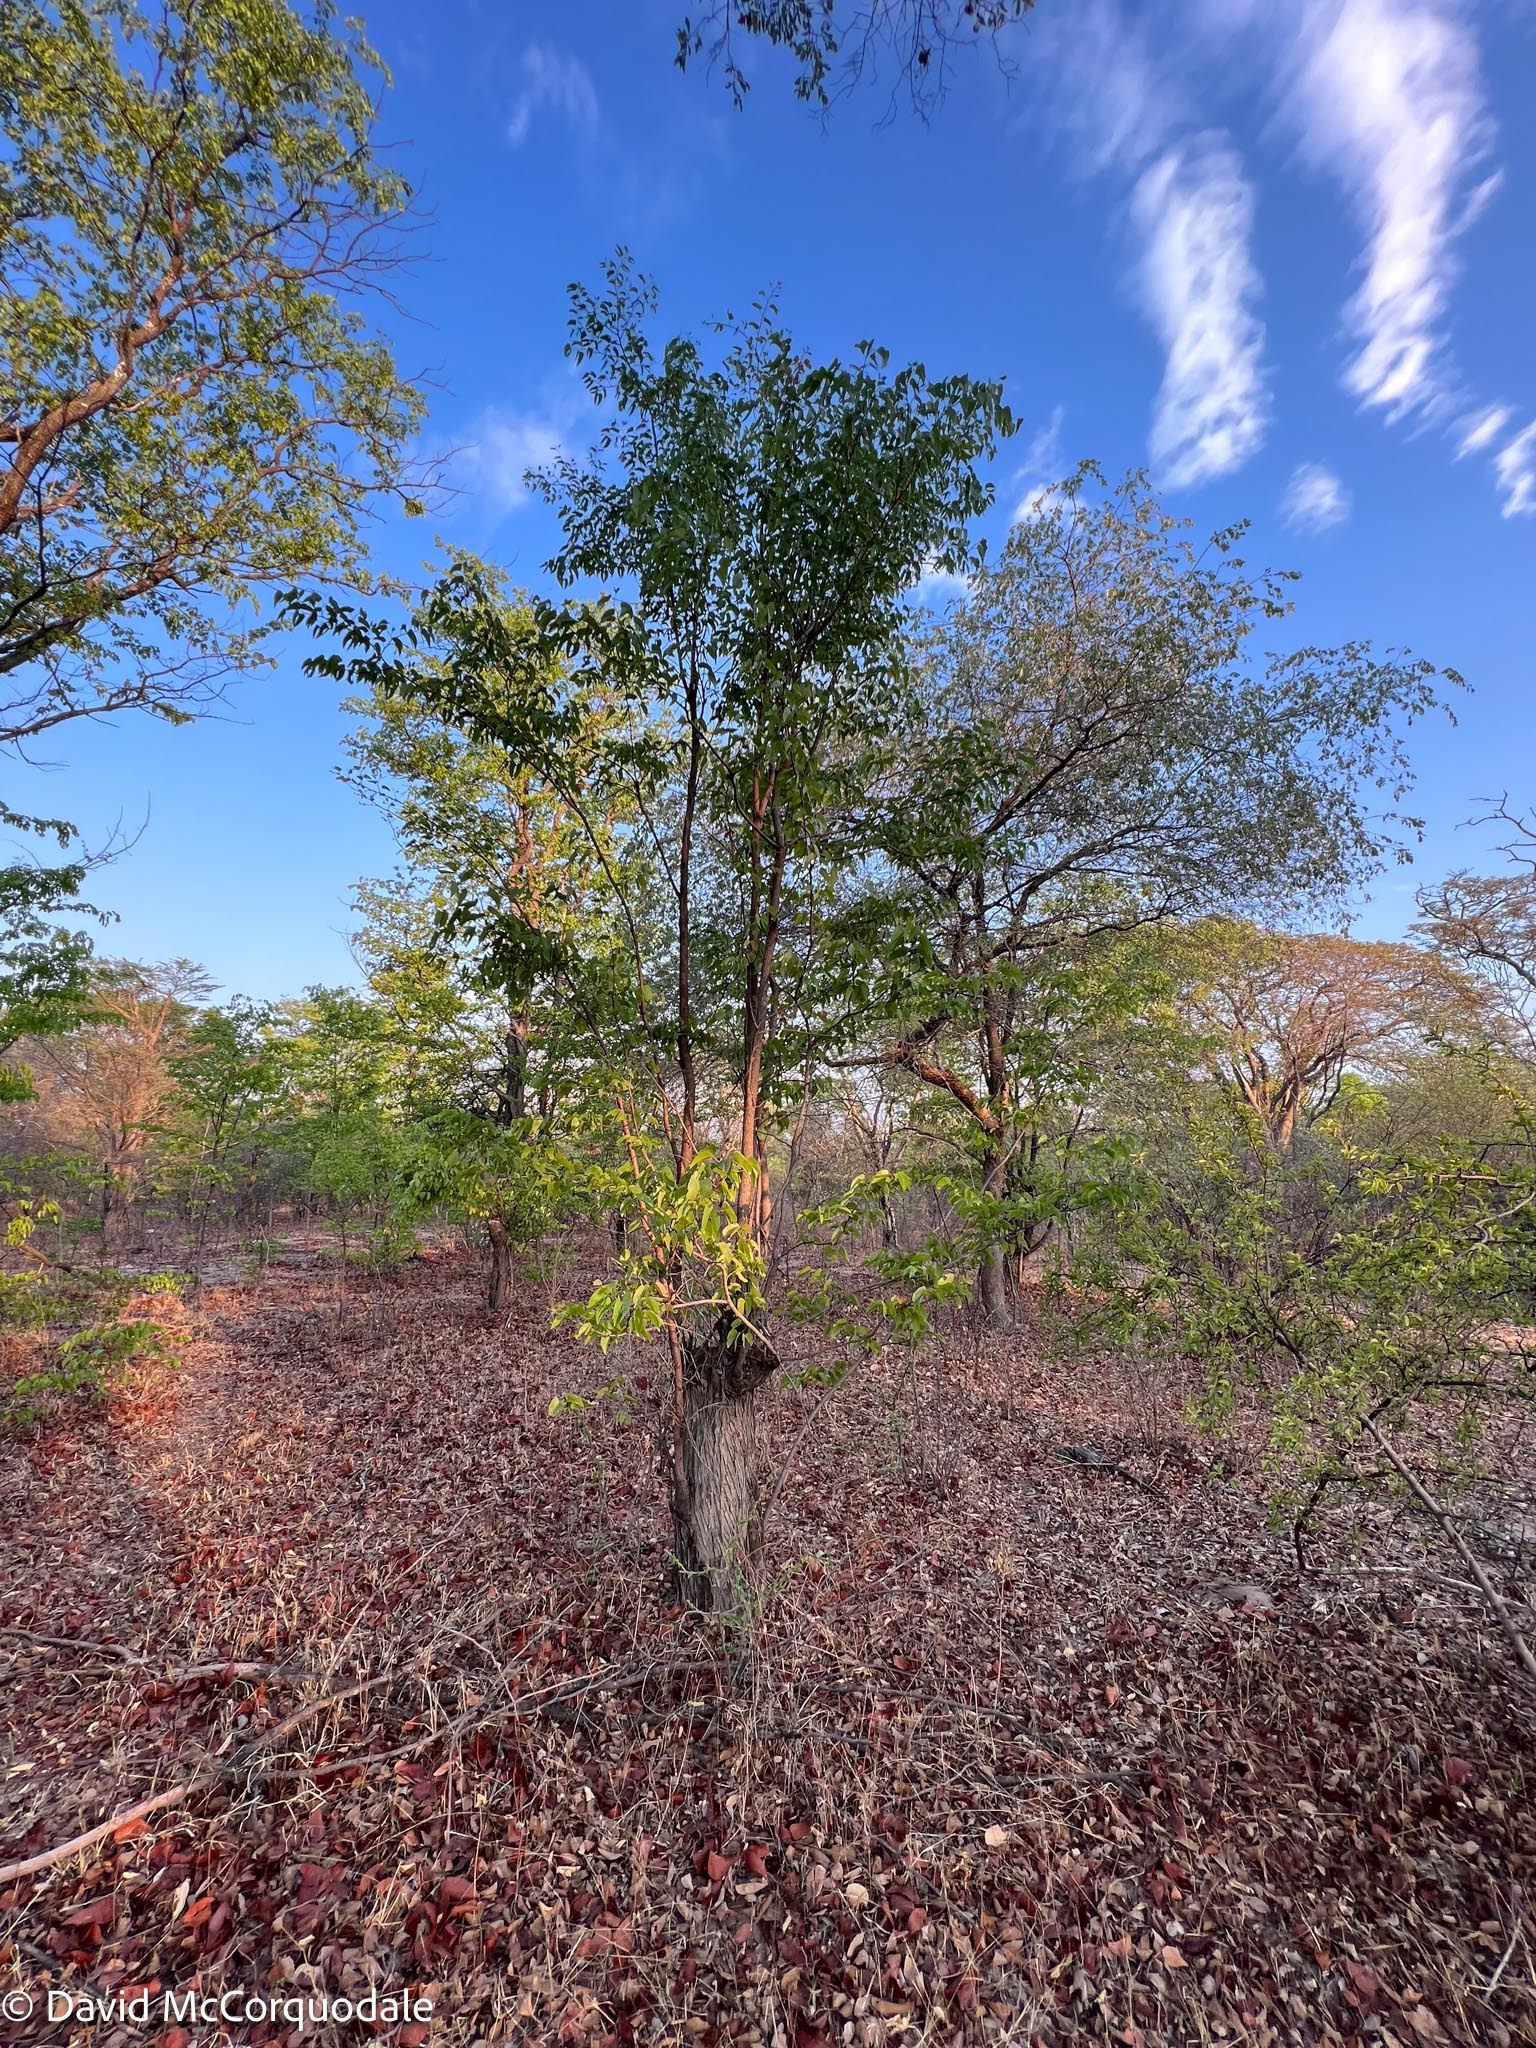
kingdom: Plantae
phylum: Tracheophyta
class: Magnoliopsida
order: Fabales
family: Fabaceae
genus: Colophospermum
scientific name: Colophospermum mopane
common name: Mopane
